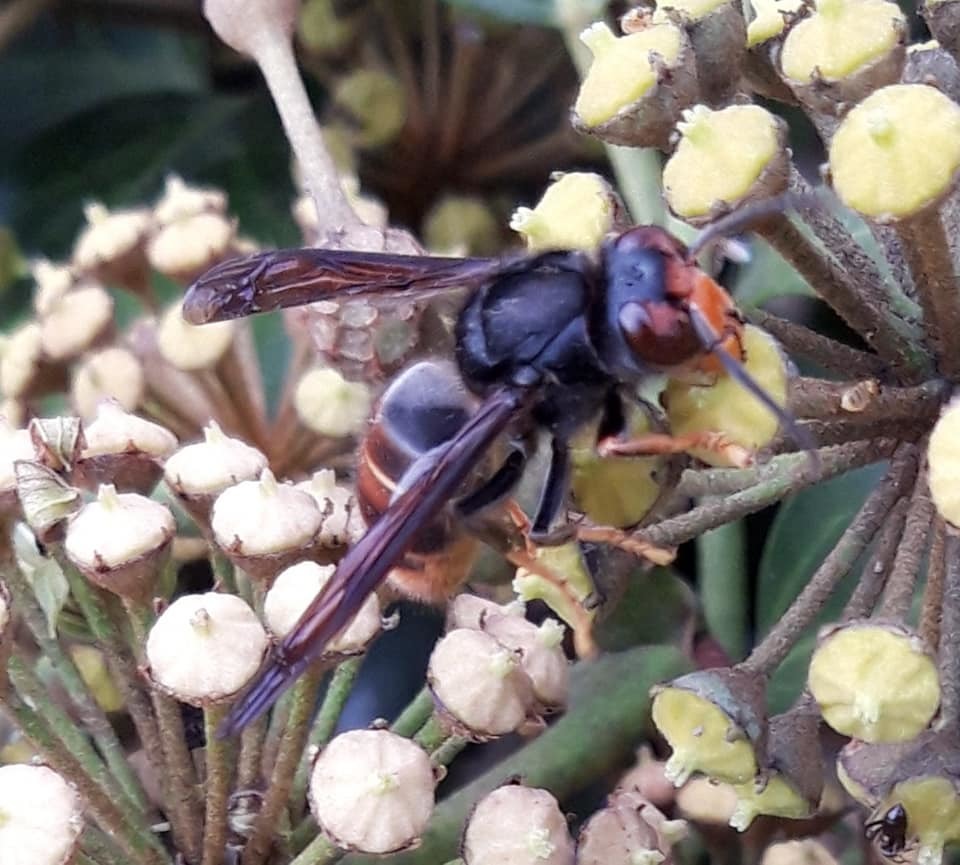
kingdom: Animalia
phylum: Arthropoda
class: Insecta
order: Hymenoptera
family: Vespidae
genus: Vespa
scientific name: Vespa velutina
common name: Asian hornet
